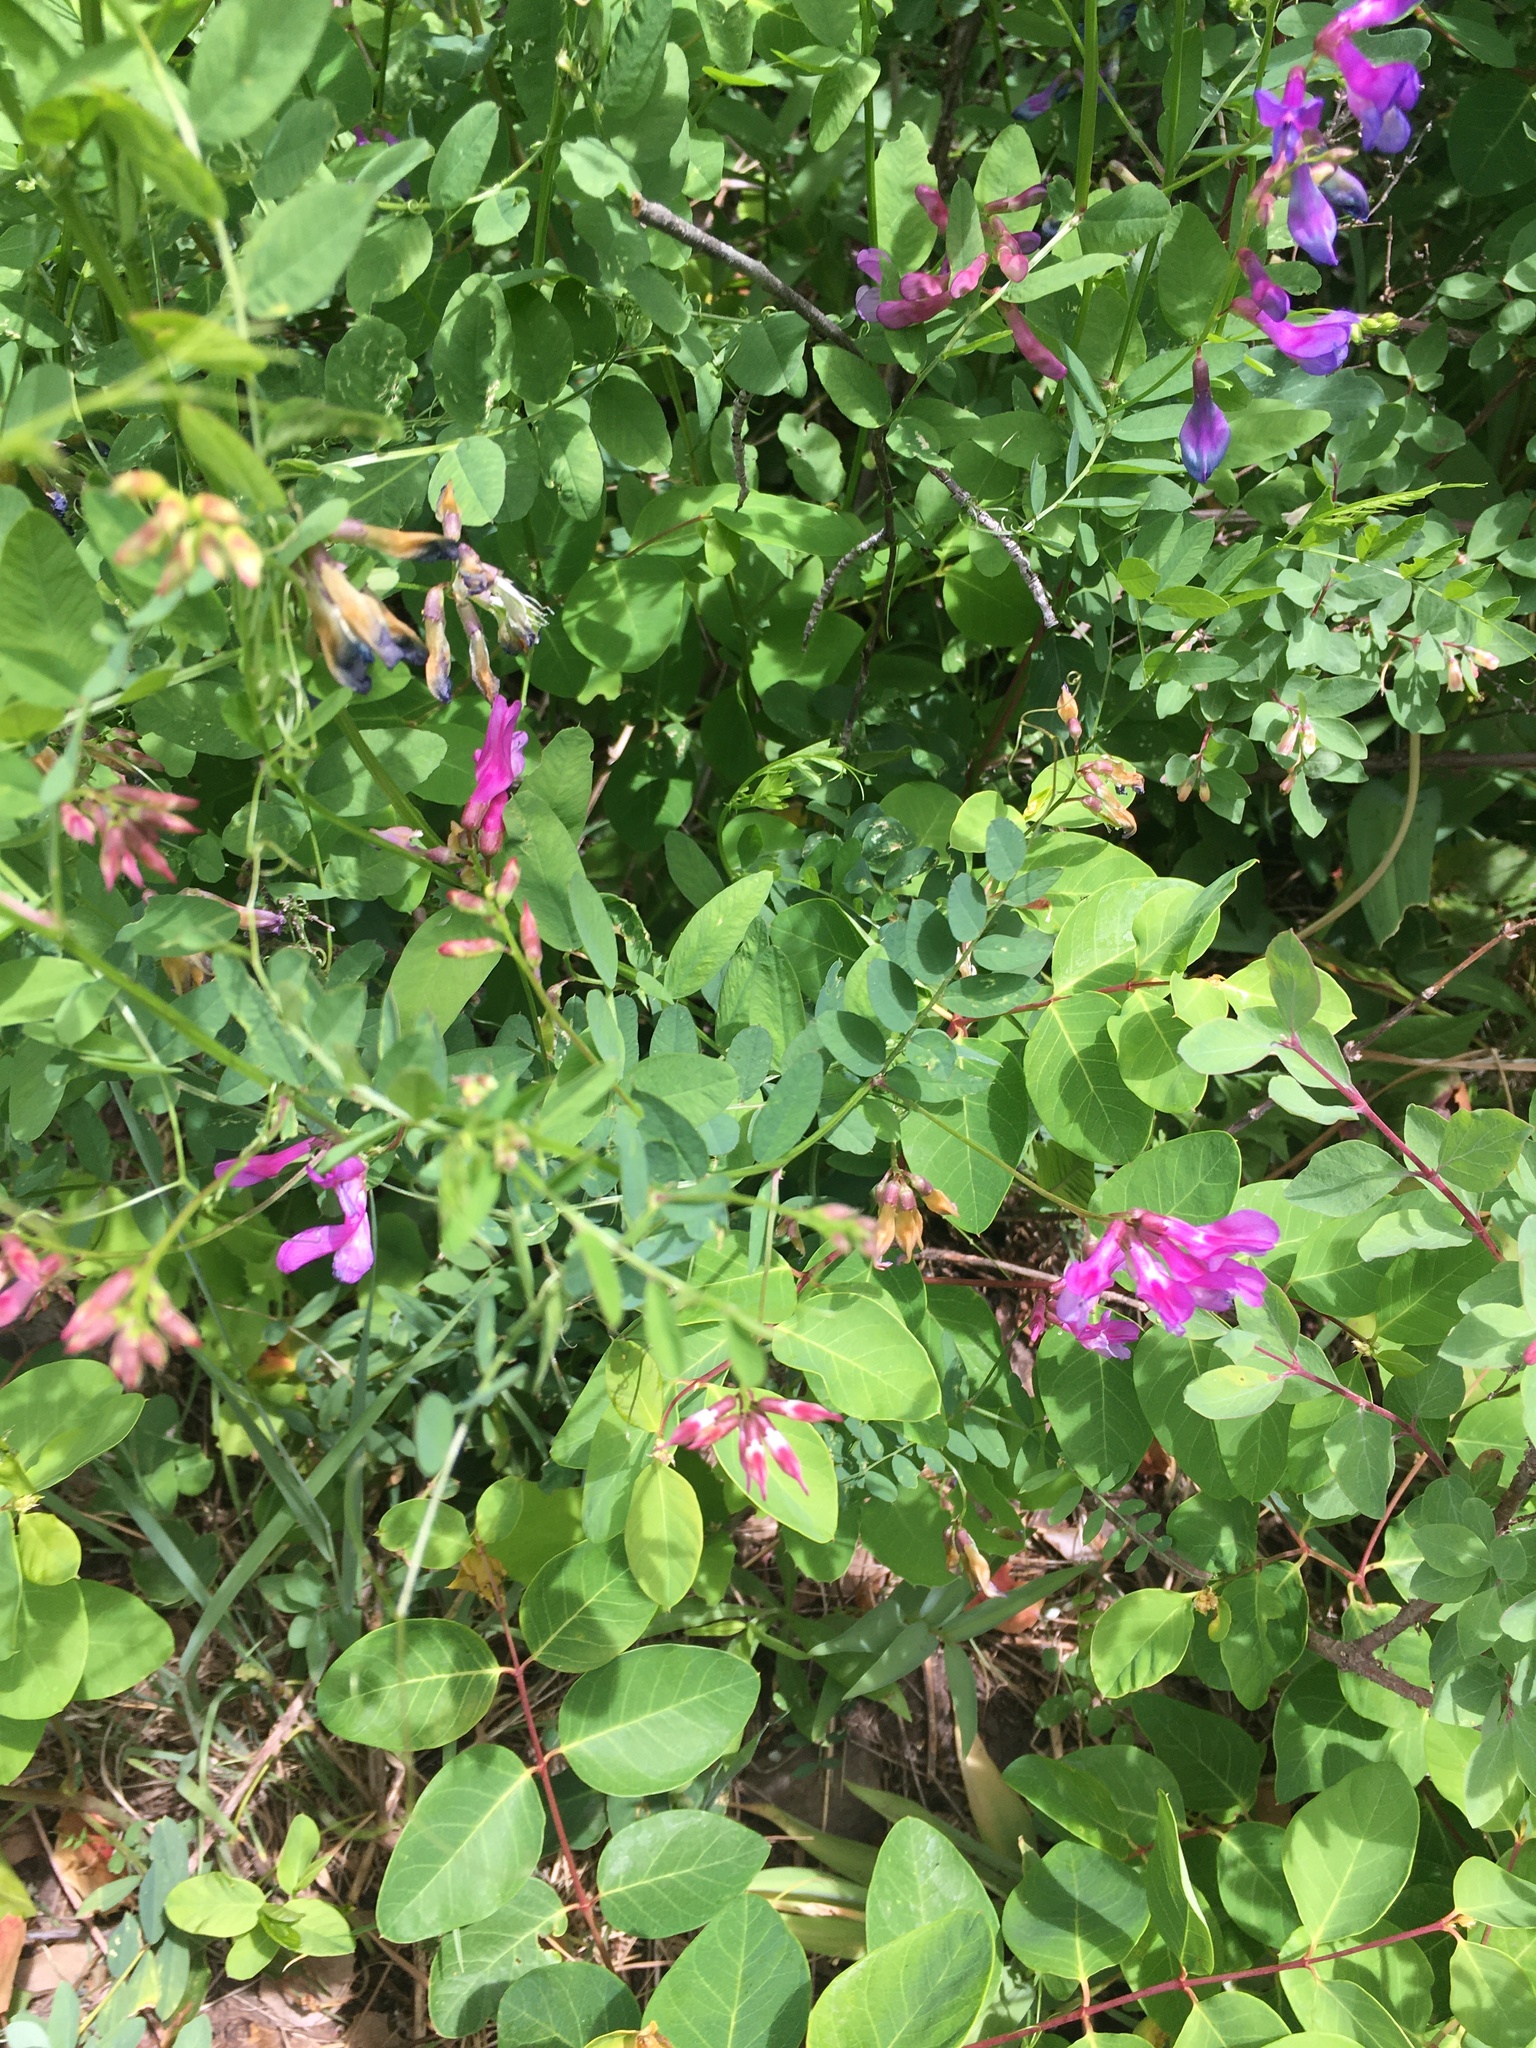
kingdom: Plantae
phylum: Tracheophyta
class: Magnoliopsida
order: Fabales
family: Fabaceae
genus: Vicia
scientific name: Vicia americana
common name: American vetch
